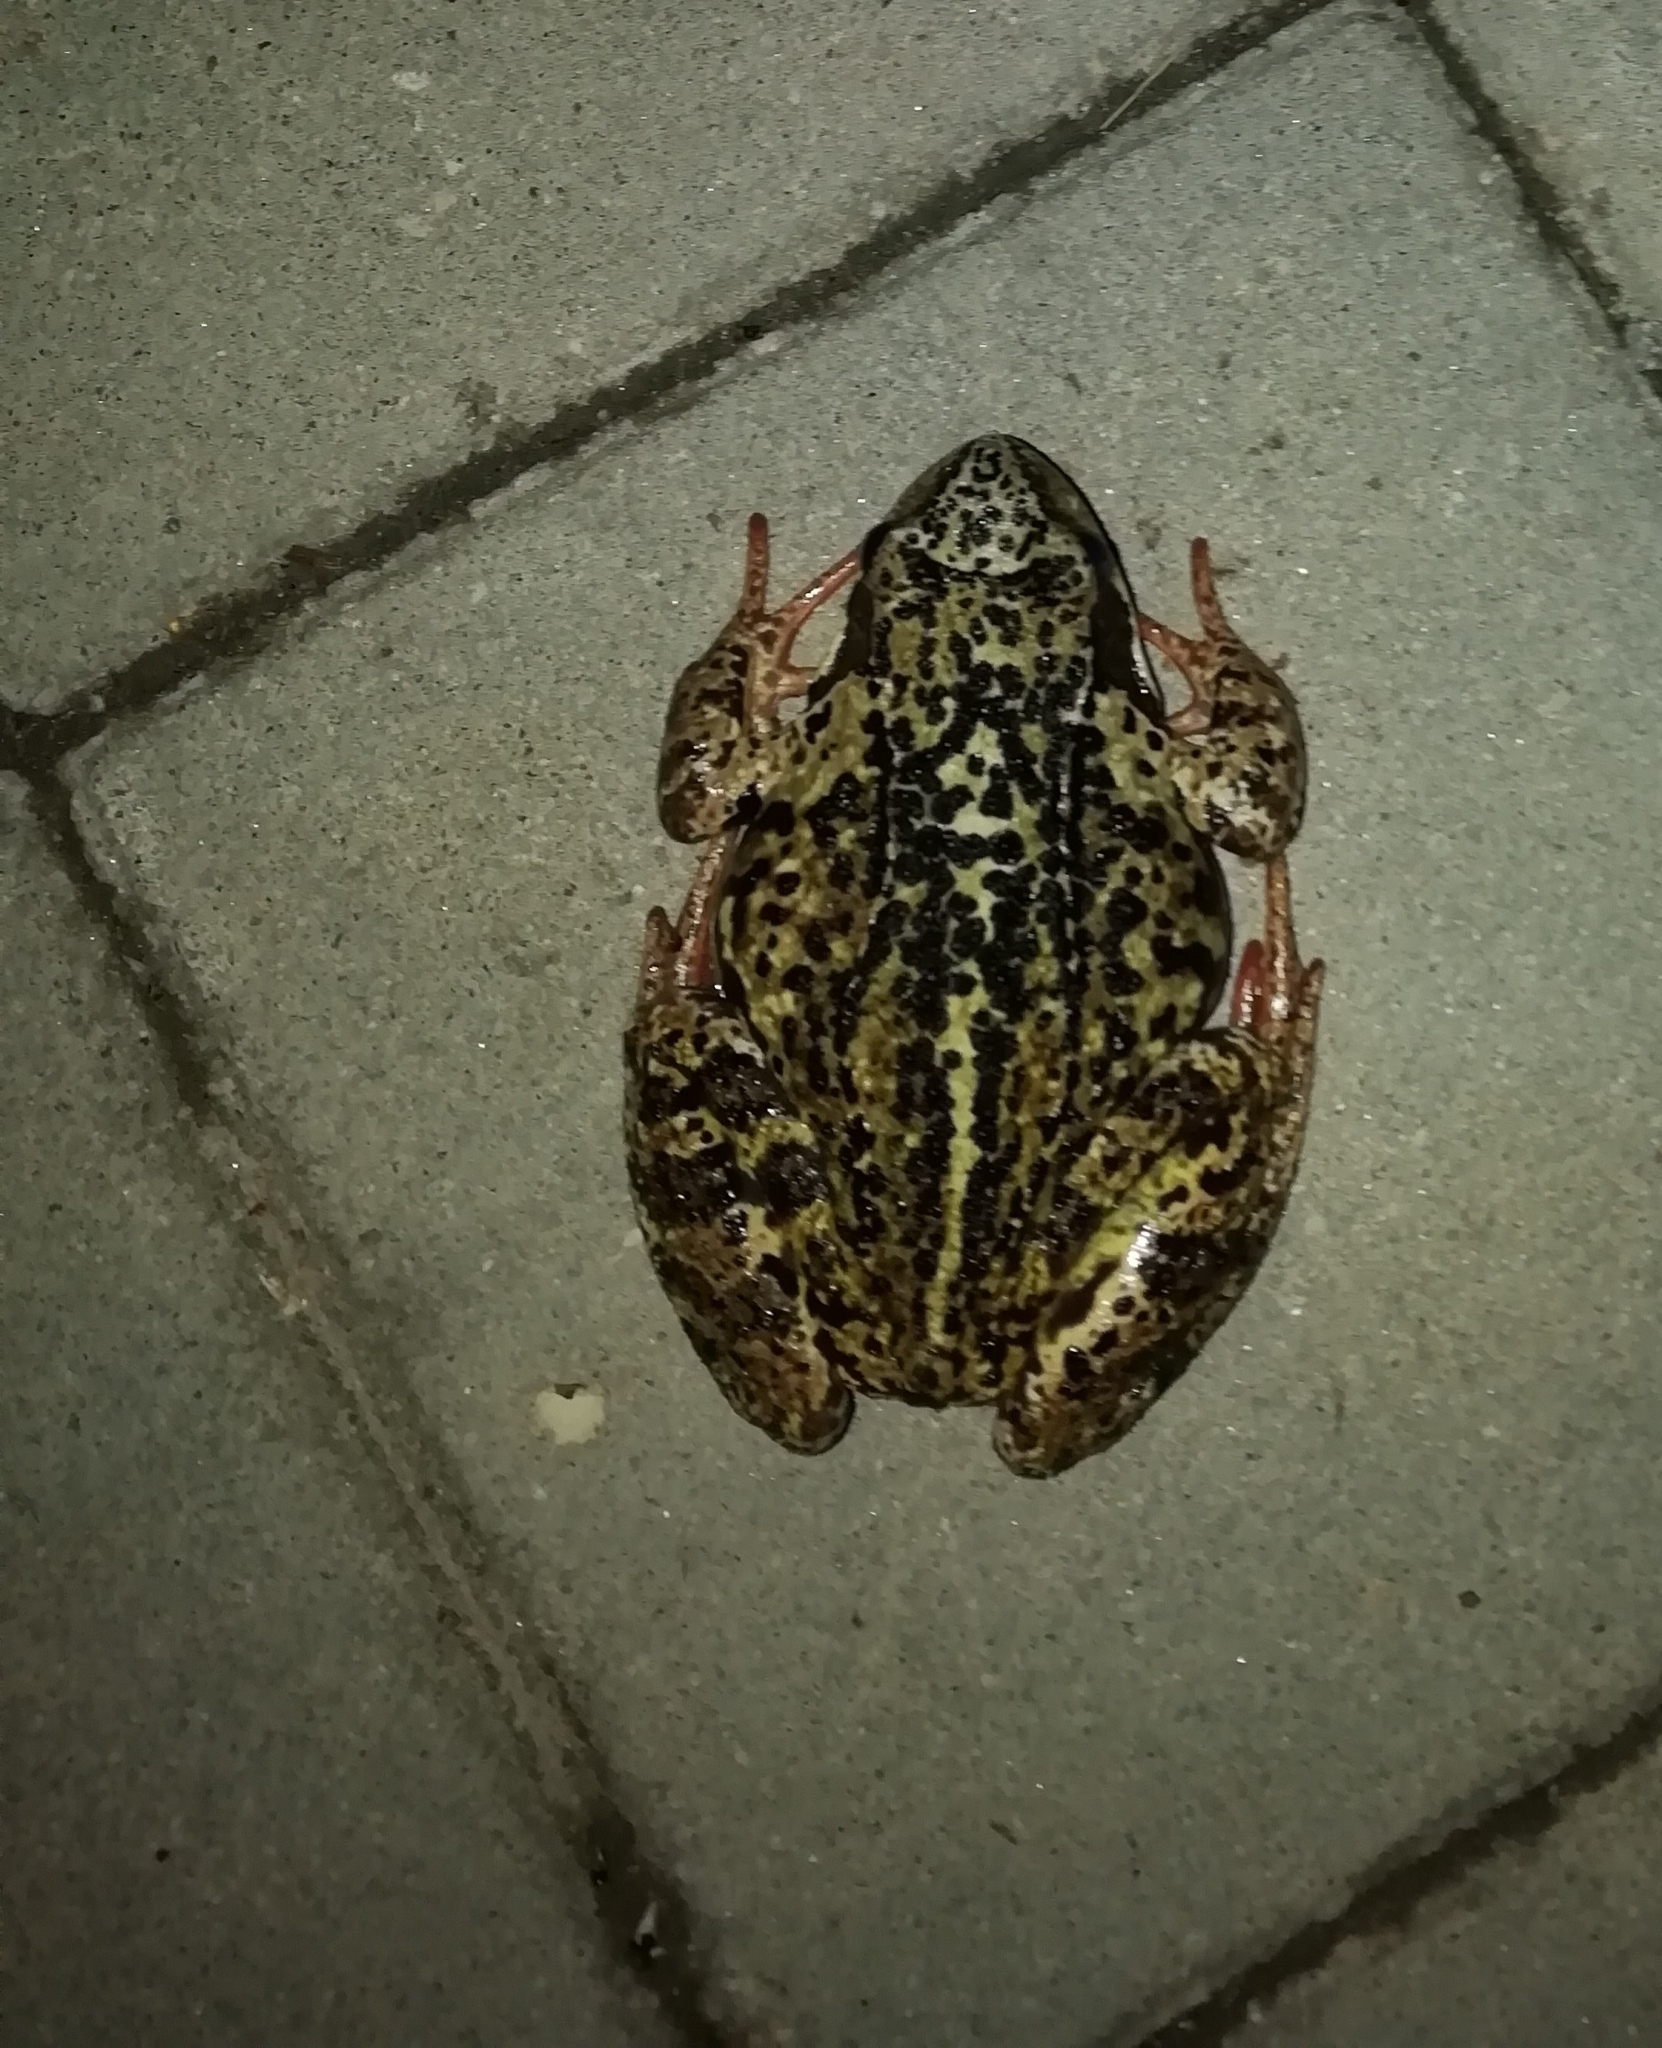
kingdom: Animalia
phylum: Chordata
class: Amphibia
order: Anura
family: Ranidae
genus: Rana
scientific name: Rana temporaria
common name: Common frog
